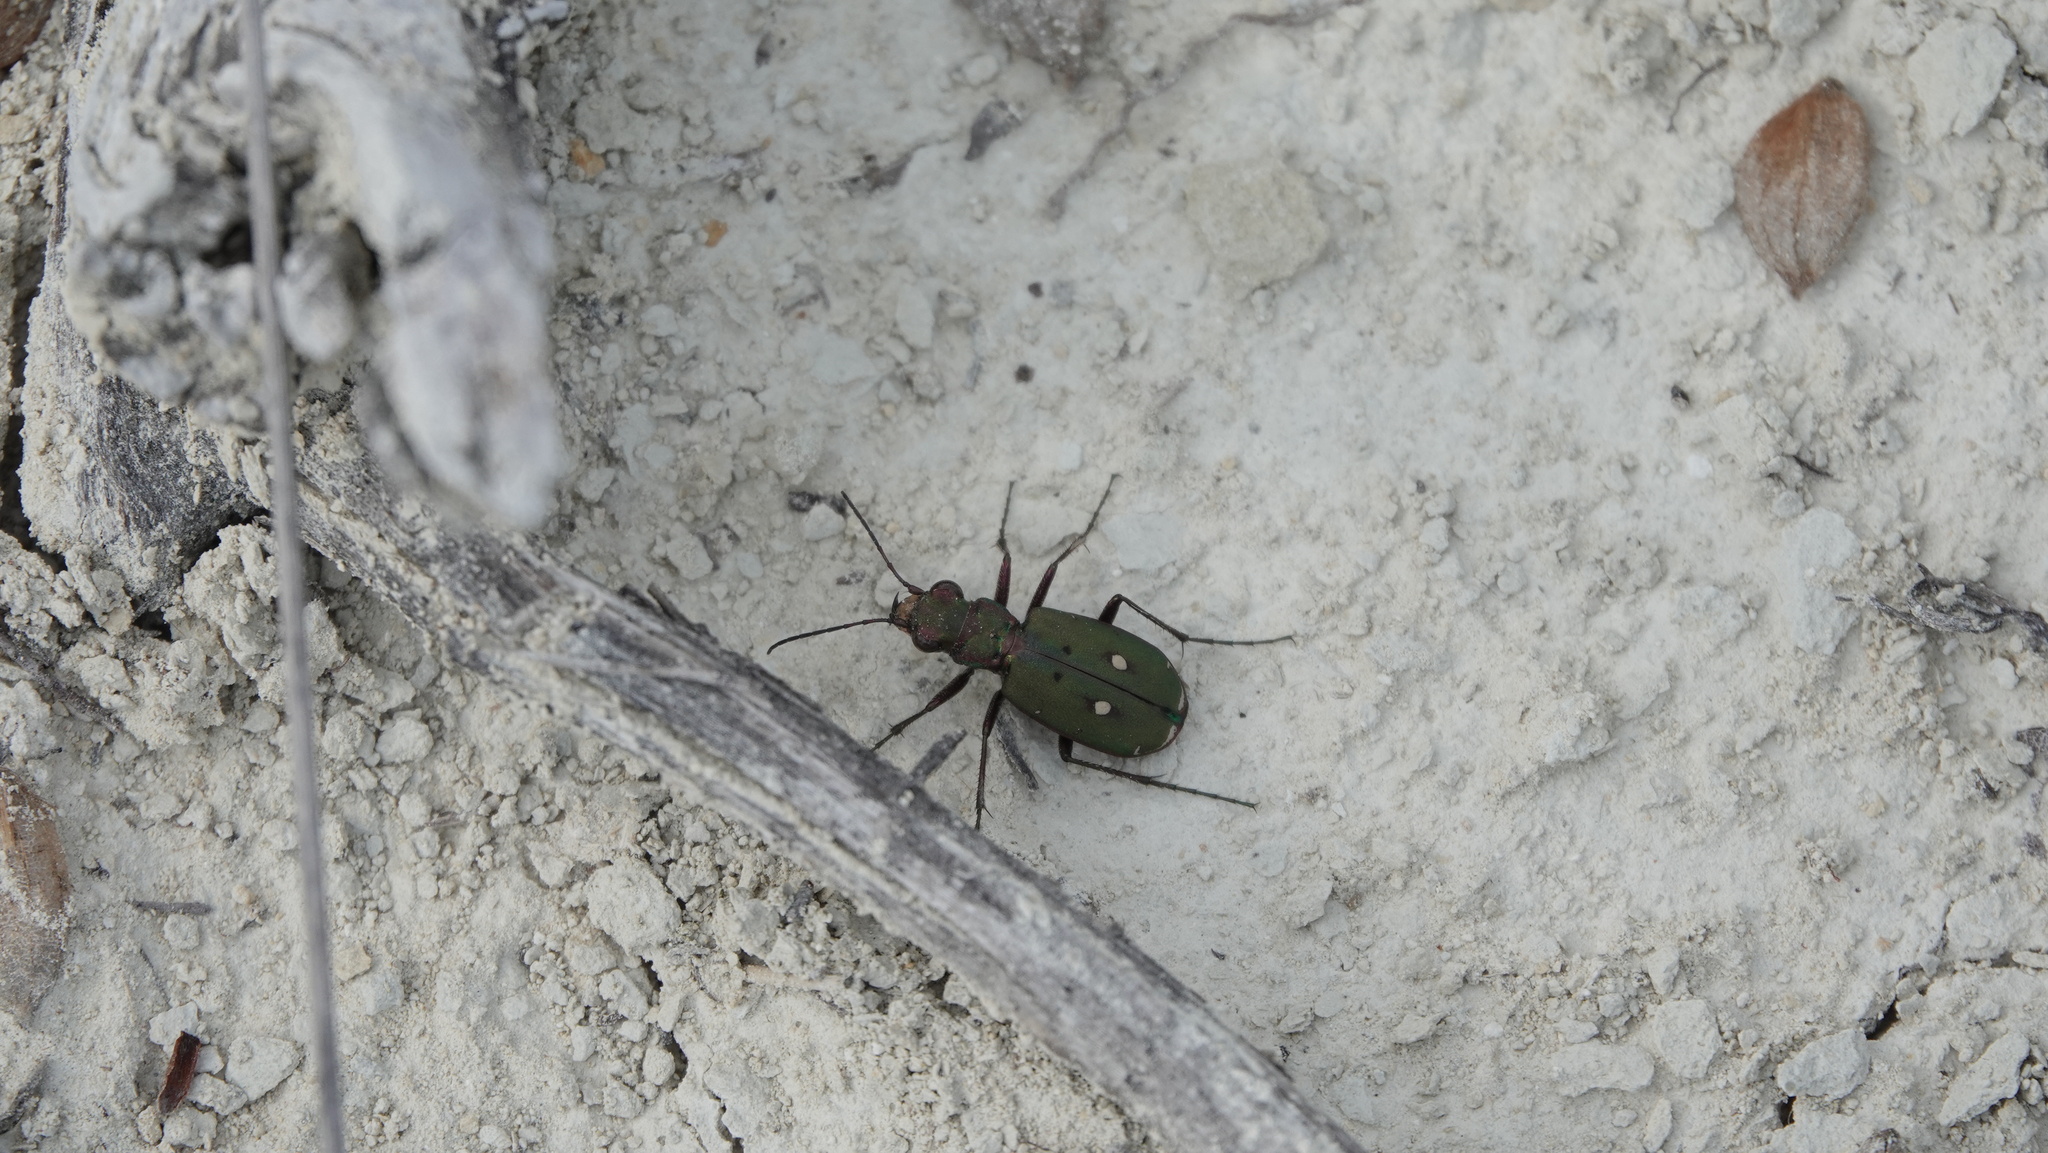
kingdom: Animalia
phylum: Arthropoda
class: Insecta
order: Coleoptera
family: Carabidae
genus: Cicindela
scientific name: Cicindela campestris
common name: Common tiger beetle
